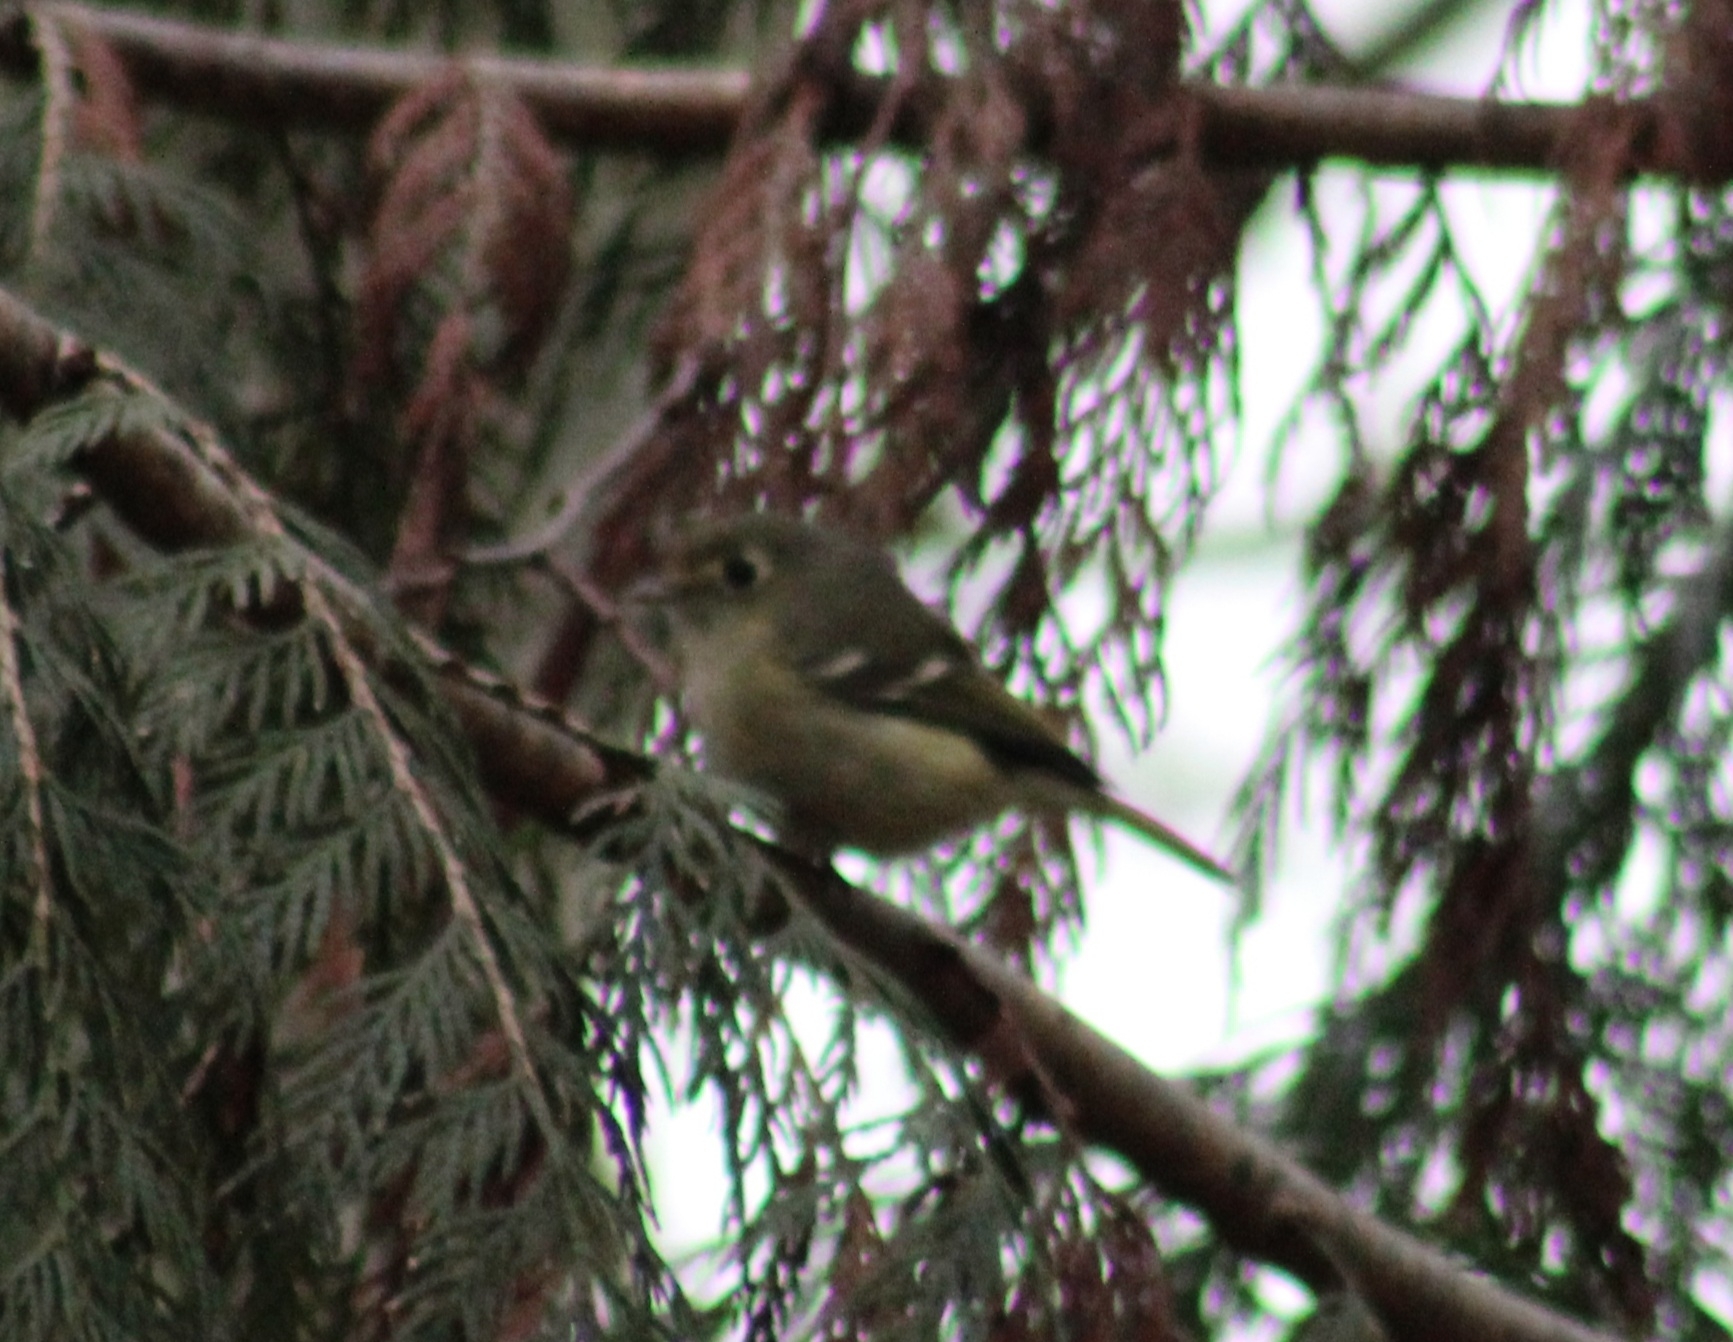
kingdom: Animalia
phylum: Chordata
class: Aves
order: Passeriformes
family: Vireonidae
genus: Vireo
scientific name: Vireo huttoni
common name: Hutton's vireo
